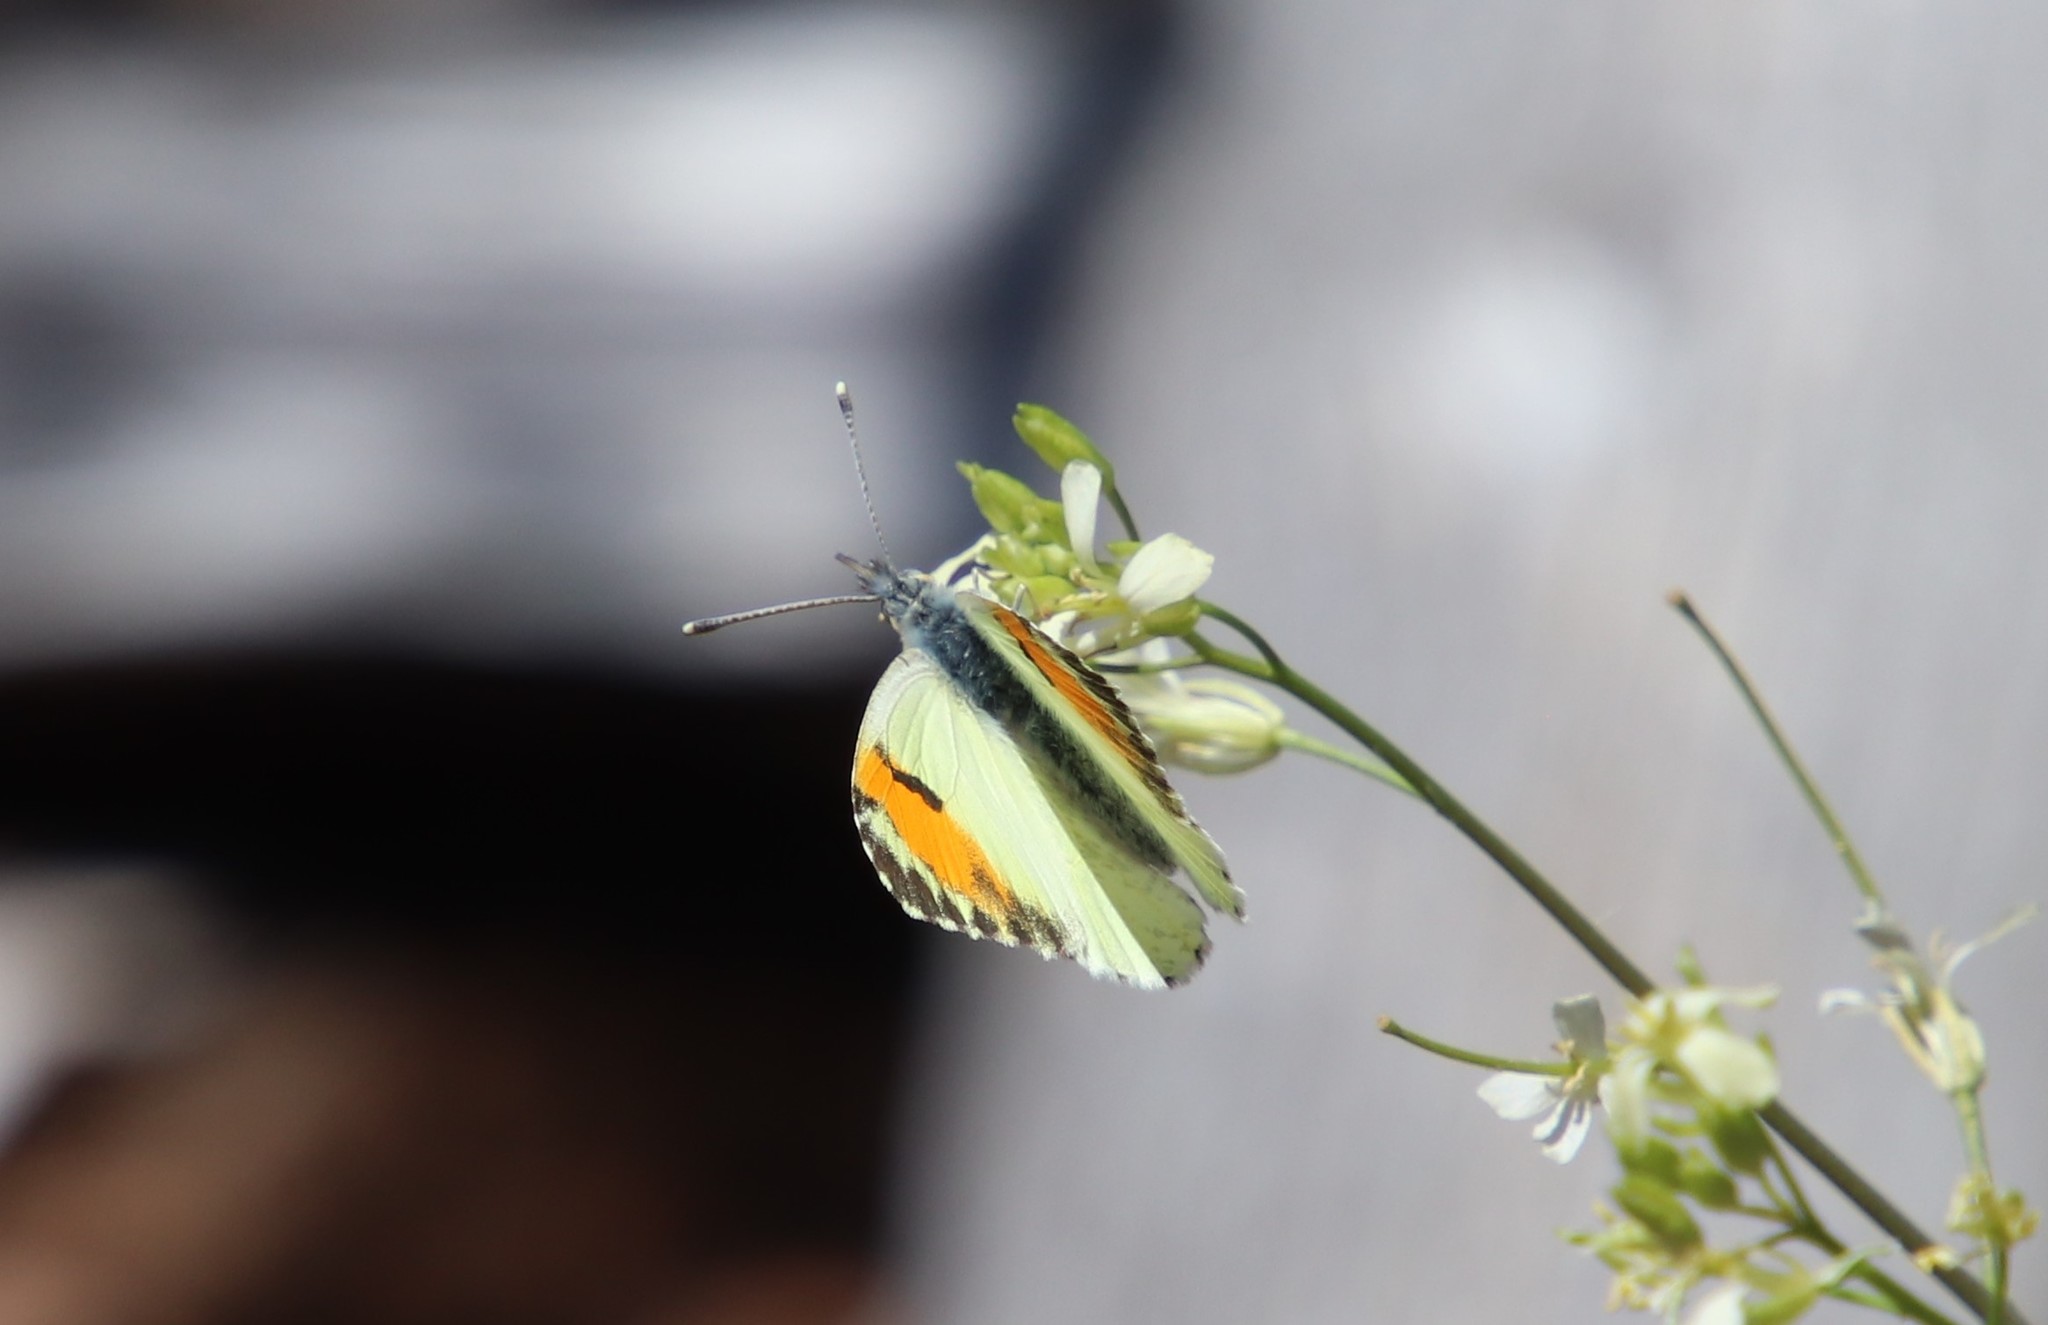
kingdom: Animalia
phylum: Arthropoda
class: Insecta
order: Lepidoptera
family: Pieridae
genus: Anthocharis
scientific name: Anthocharis sara
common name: Sara's orangetip
